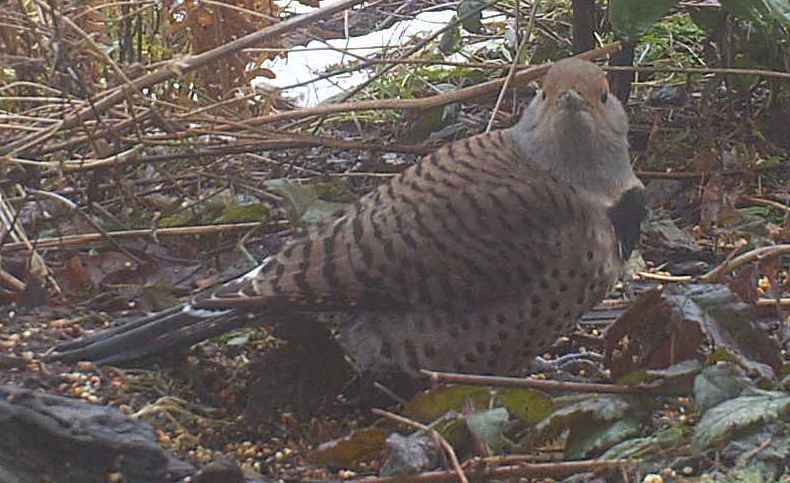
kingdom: Animalia
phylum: Chordata
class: Aves
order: Piciformes
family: Picidae
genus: Colaptes
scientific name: Colaptes auratus
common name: Northern flicker
